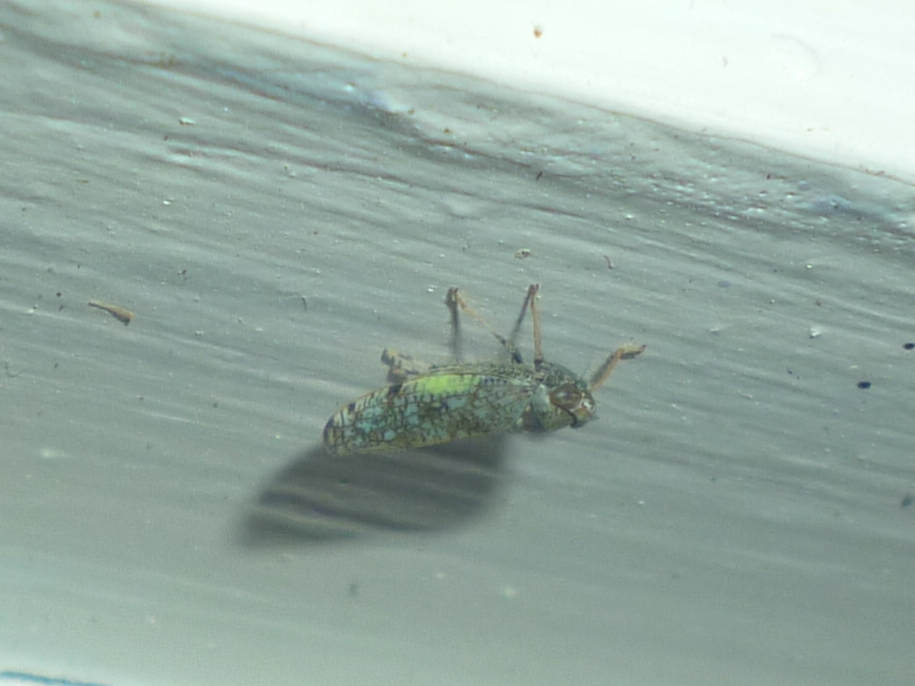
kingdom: Animalia
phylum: Arthropoda
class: Insecta
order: Hemiptera
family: Cicadellidae
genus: Orientus
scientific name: Orientus ishidae
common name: Japanese leafhopper
